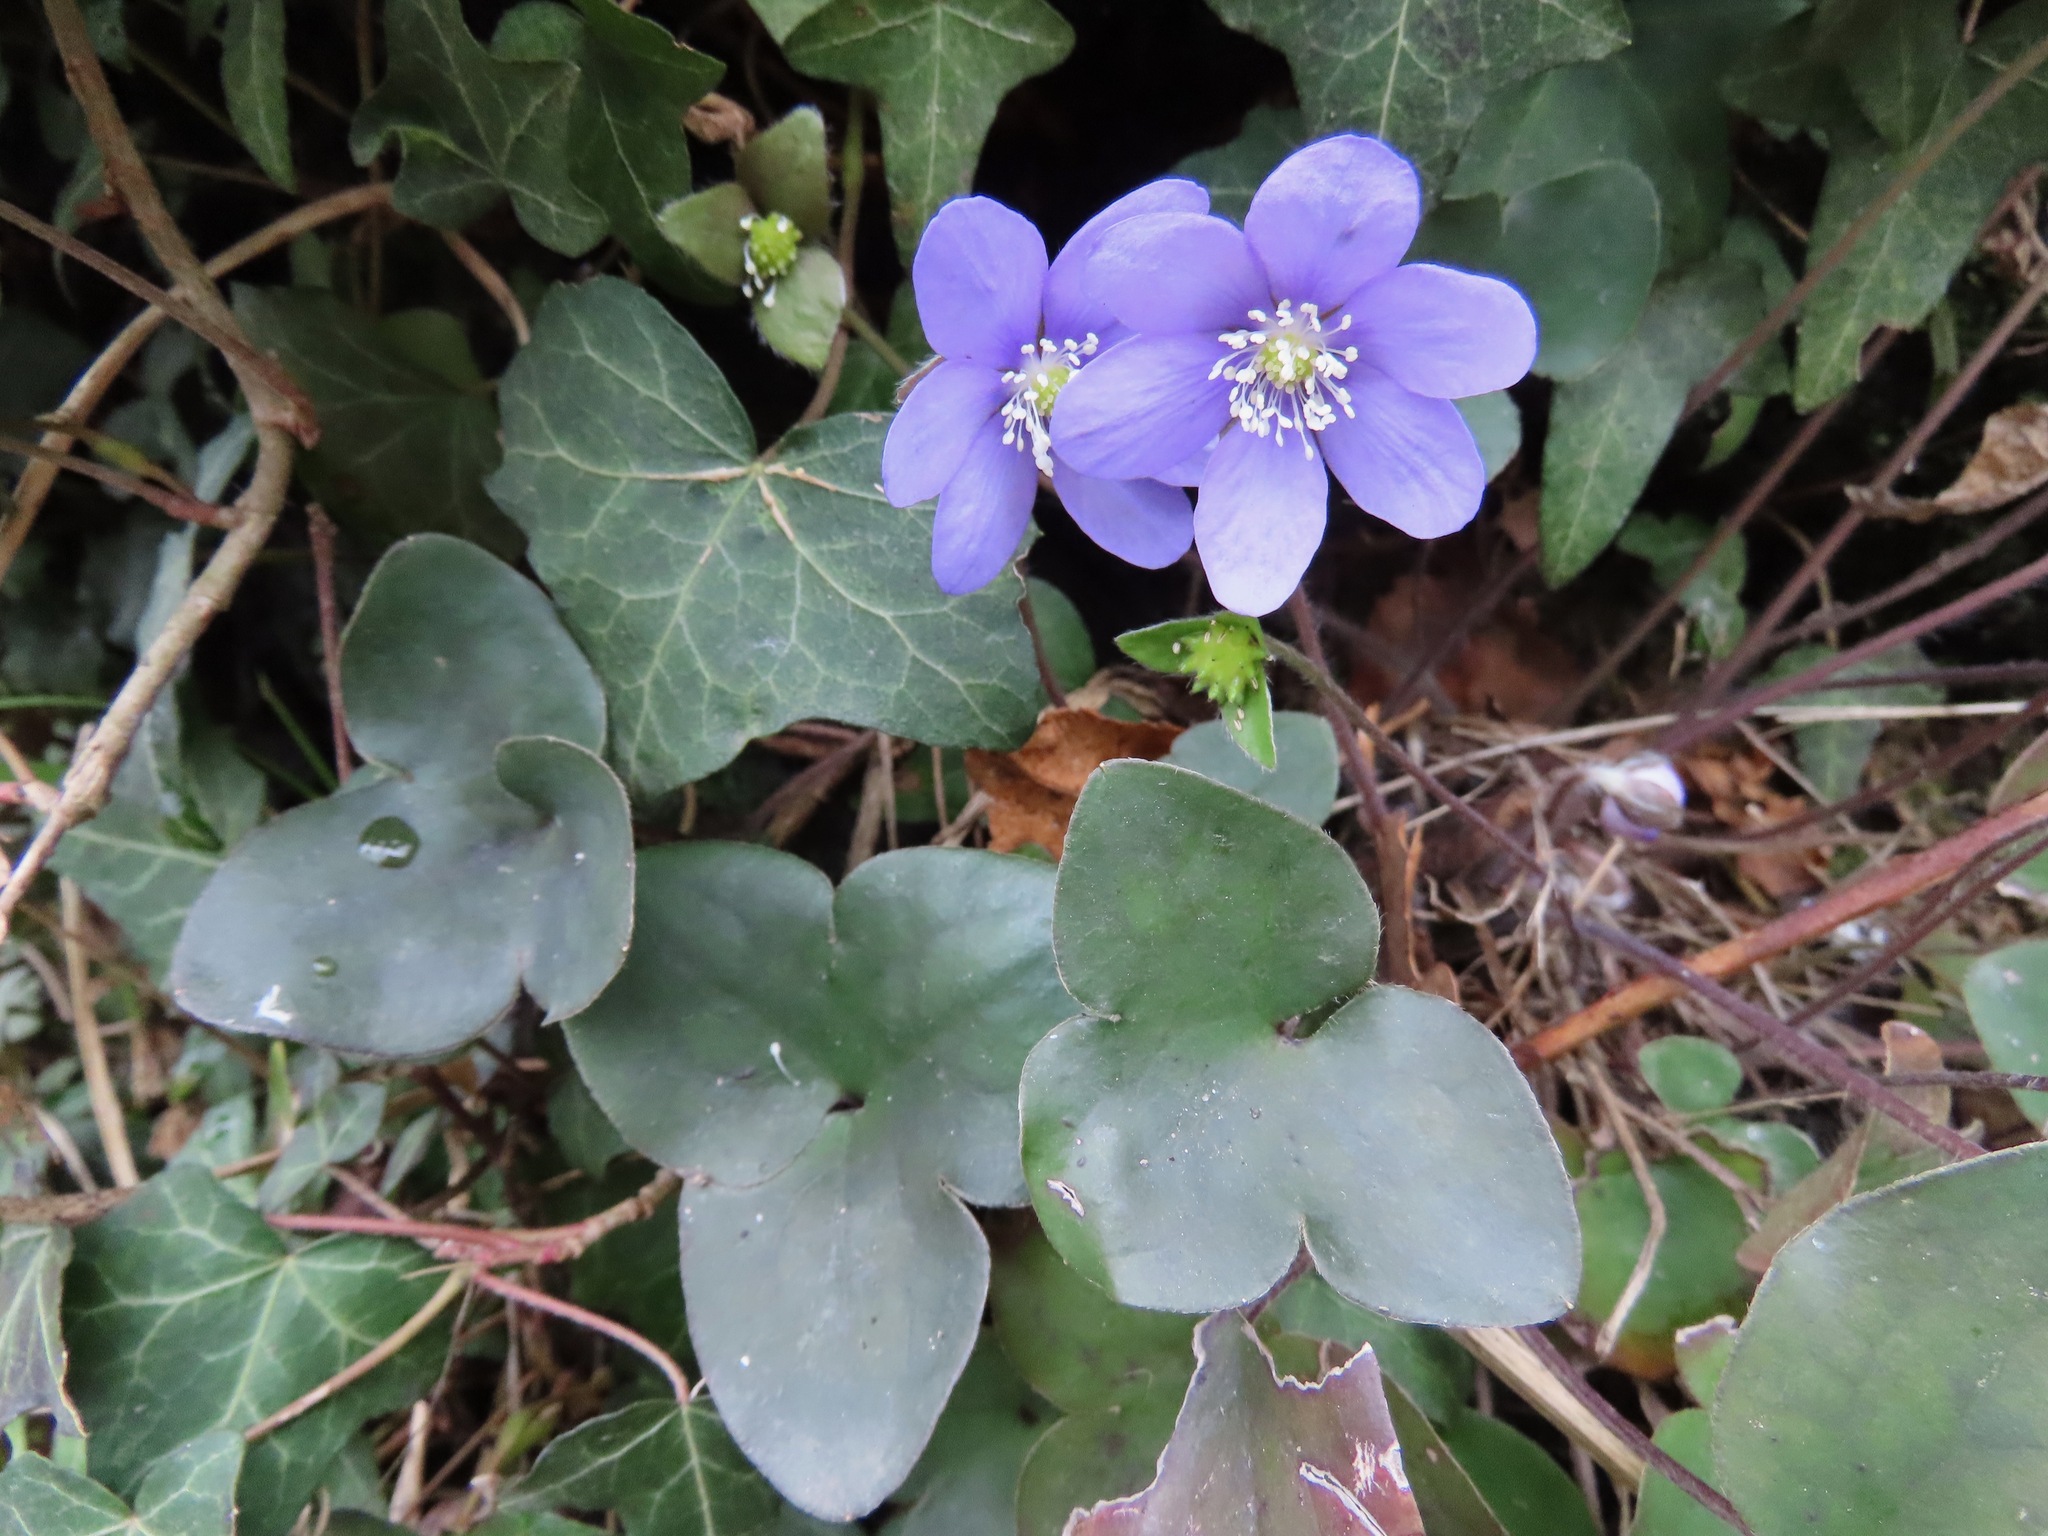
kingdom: Plantae
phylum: Tracheophyta
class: Magnoliopsida
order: Ranunculales
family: Ranunculaceae
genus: Hepatica
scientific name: Hepatica nobilis
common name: Liverleaf
